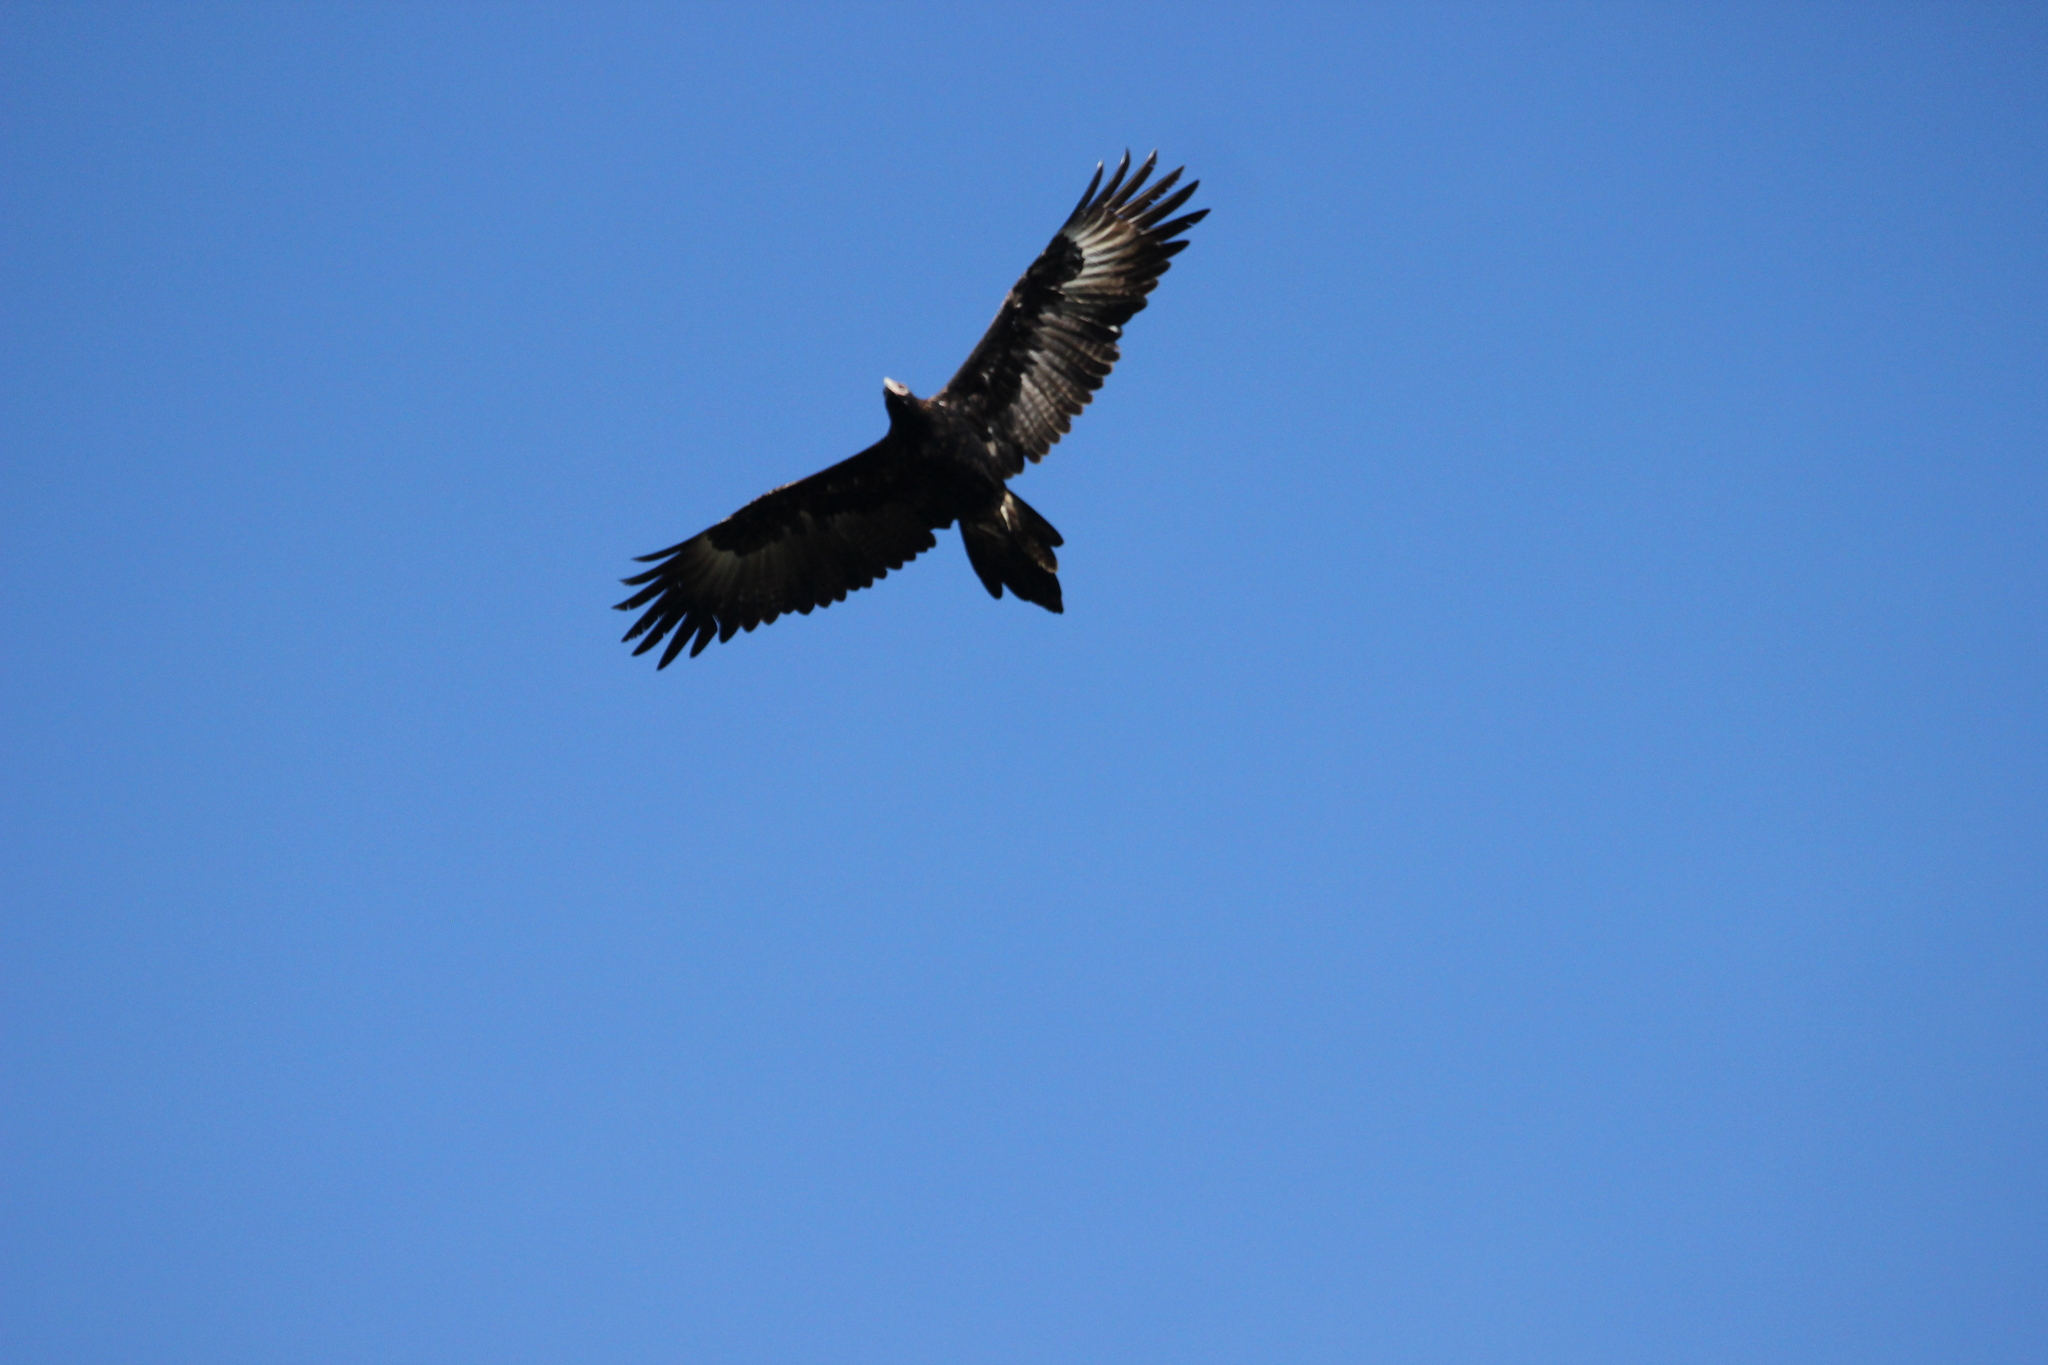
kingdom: Animalia
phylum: Chordata
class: Aves
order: Accipitriformes
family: Accipitridae
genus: Aquila
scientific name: Aquila audax
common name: Wedge-tailed eagle
